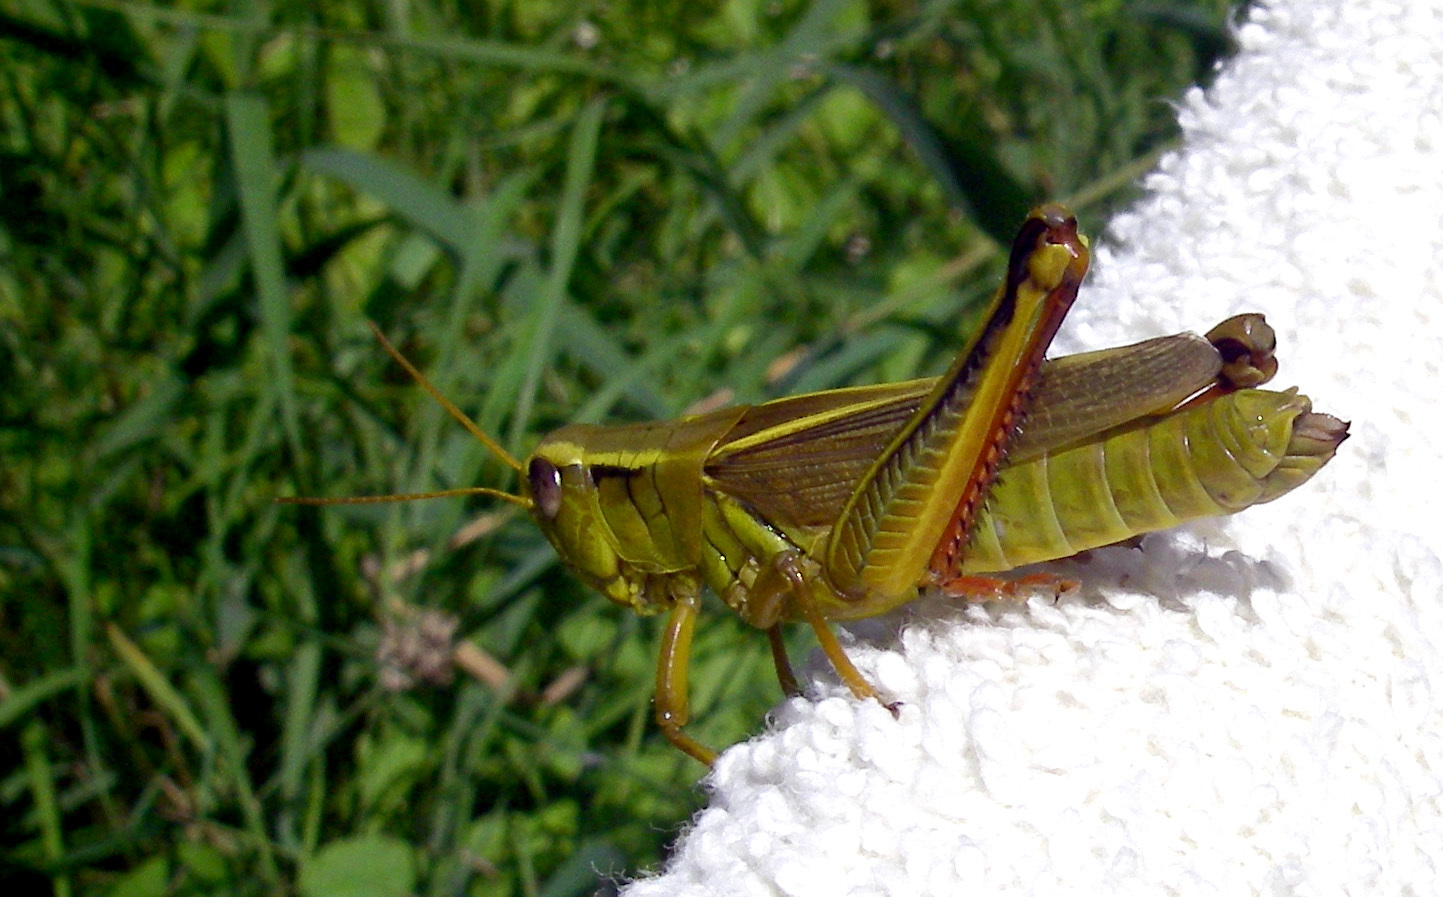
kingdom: Animalia
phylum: Arthropoda
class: Insecta
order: Orthoptera
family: Acrididae
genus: Melanoplus
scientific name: Melanoplus bivittatus
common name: Two-striped grasshopper
